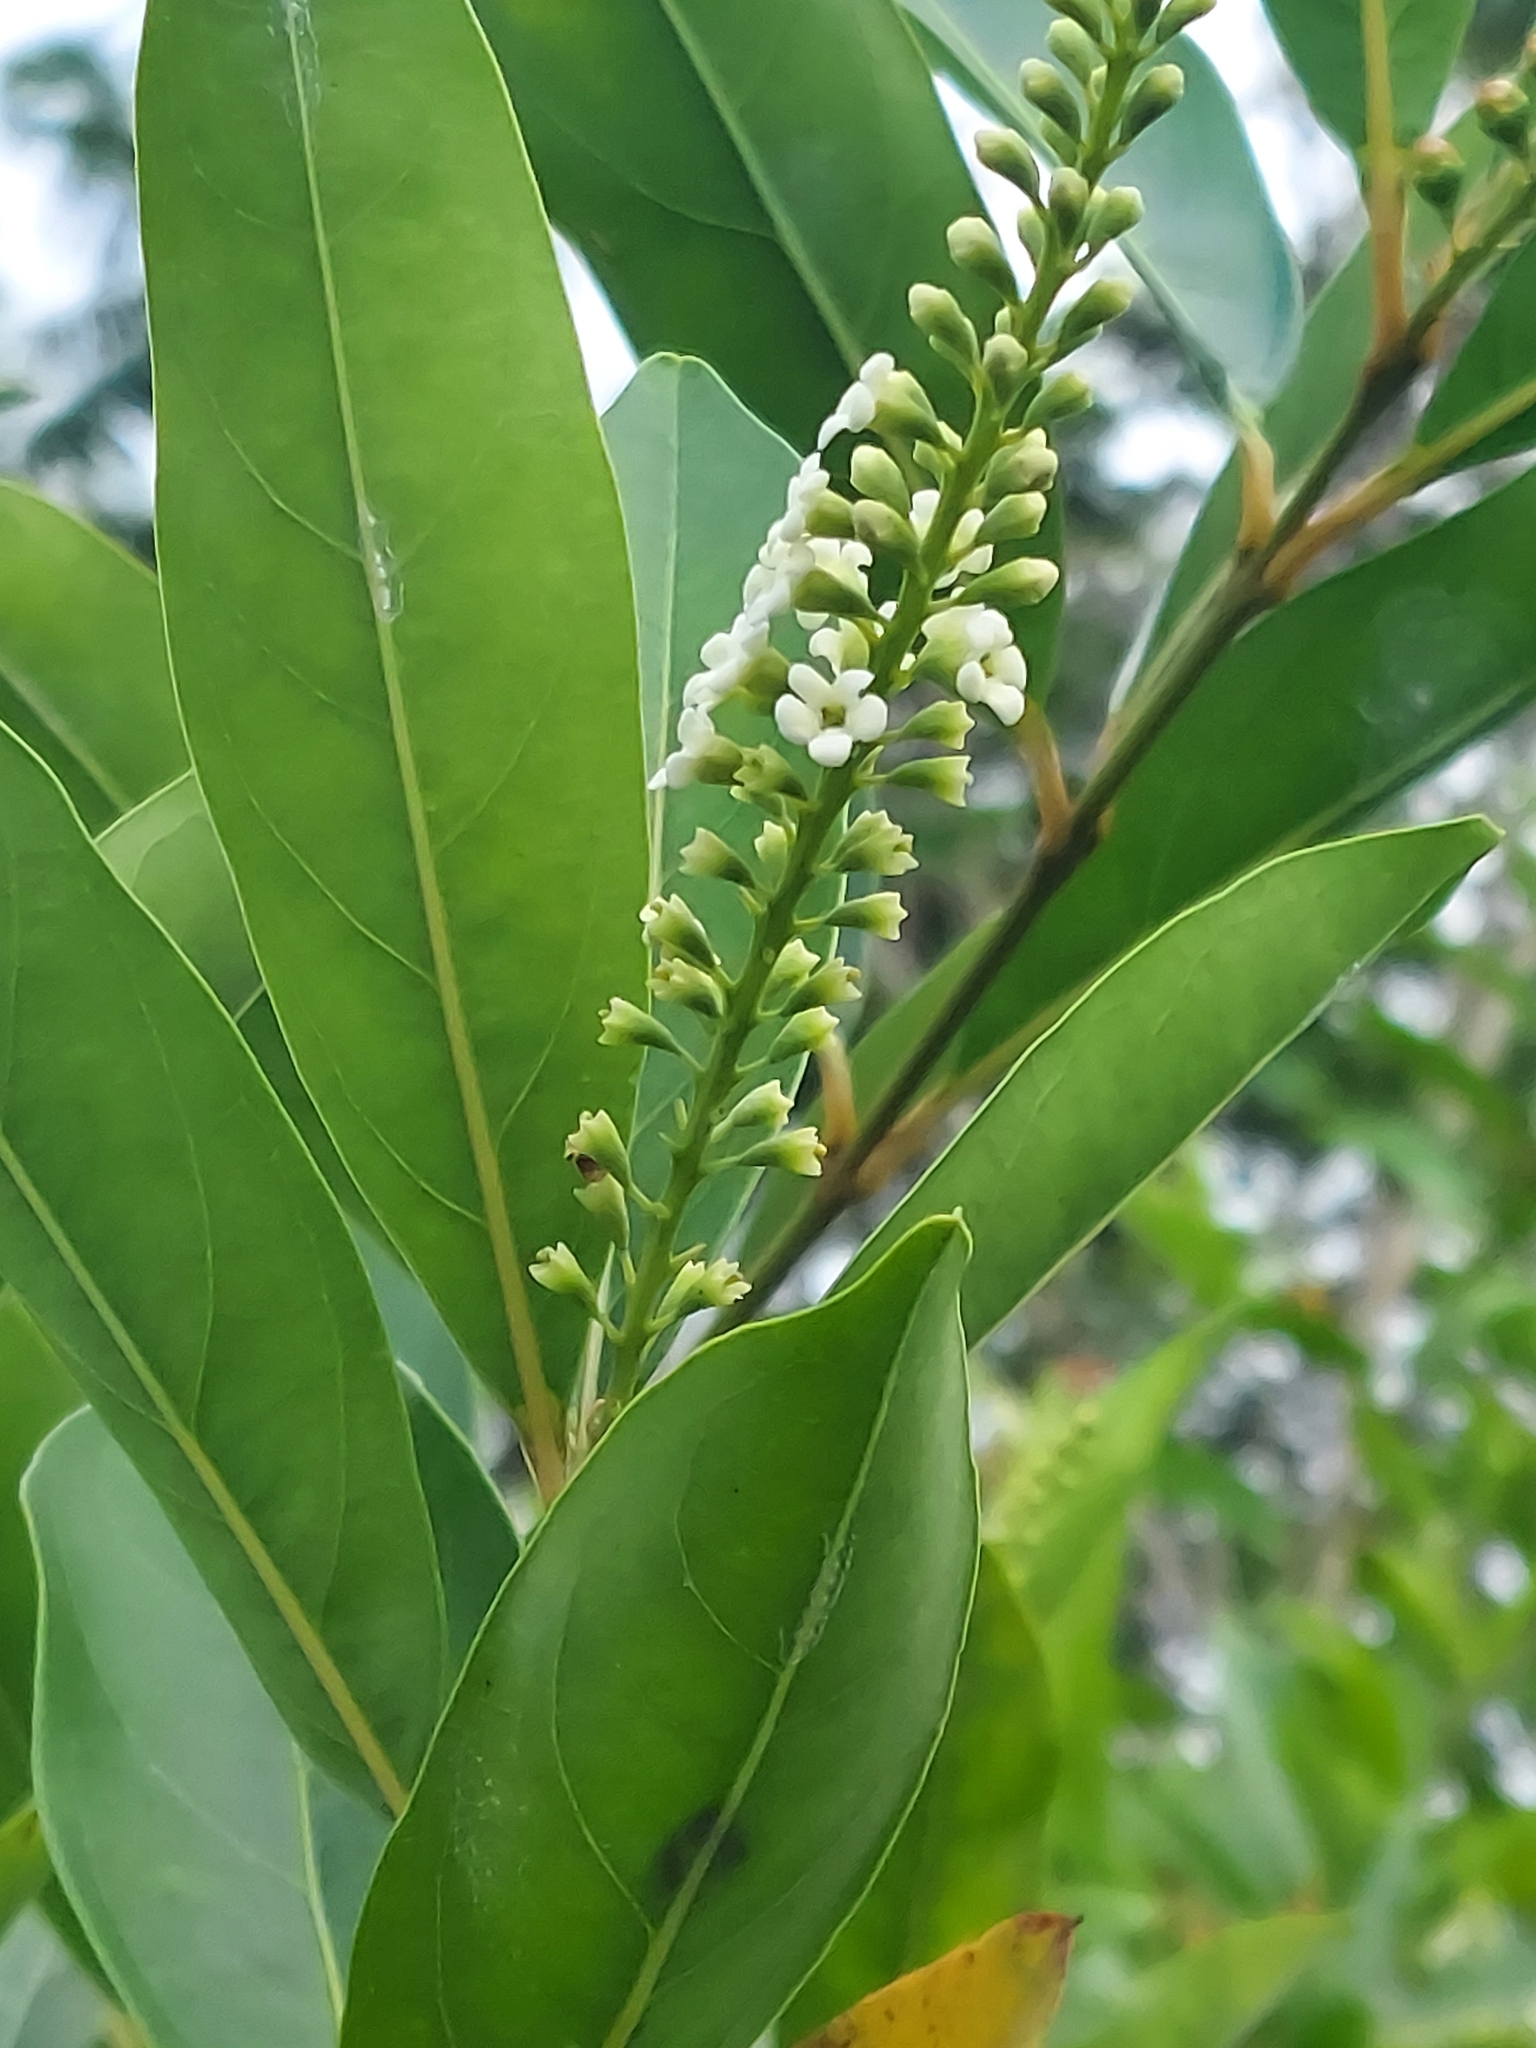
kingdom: Plantae
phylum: Tracheophyta
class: Magnoliopsida
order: Lamiales
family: Verbenaceae
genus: Citharexylum
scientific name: Citharexylum caudatum
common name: Fiddlewood
